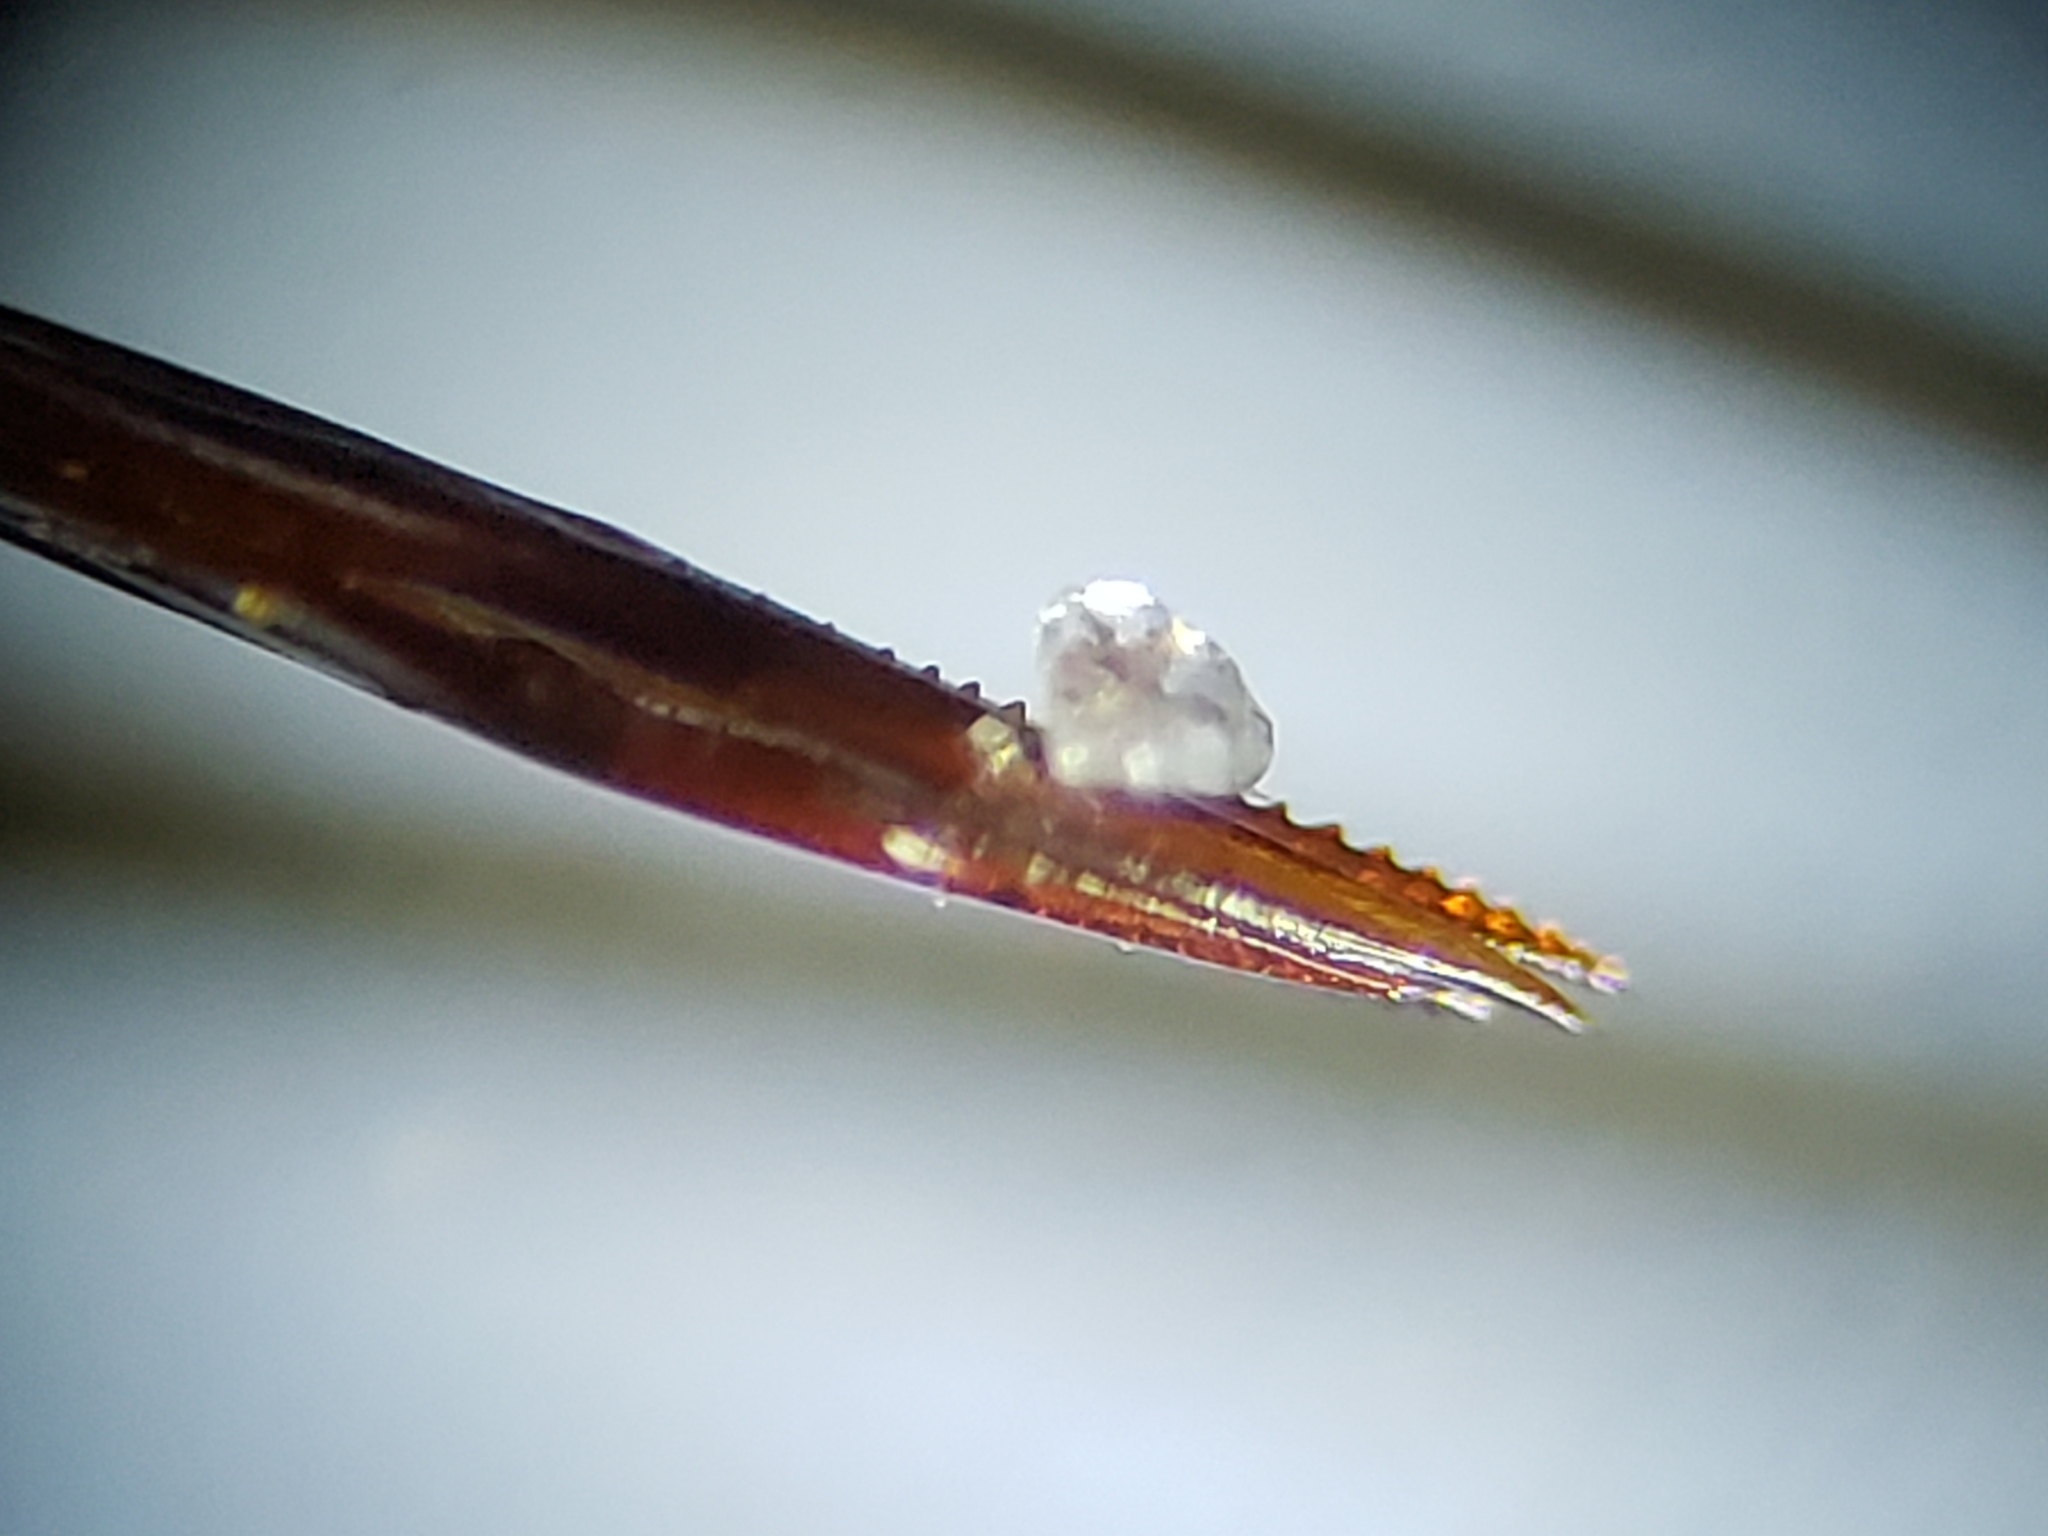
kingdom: Animalia
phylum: Arthropoda
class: Insecta
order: Orthoptera
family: Trigonidiidae
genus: Neonemobius
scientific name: Neonemobius cubensis
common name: Cuban ground cricket
